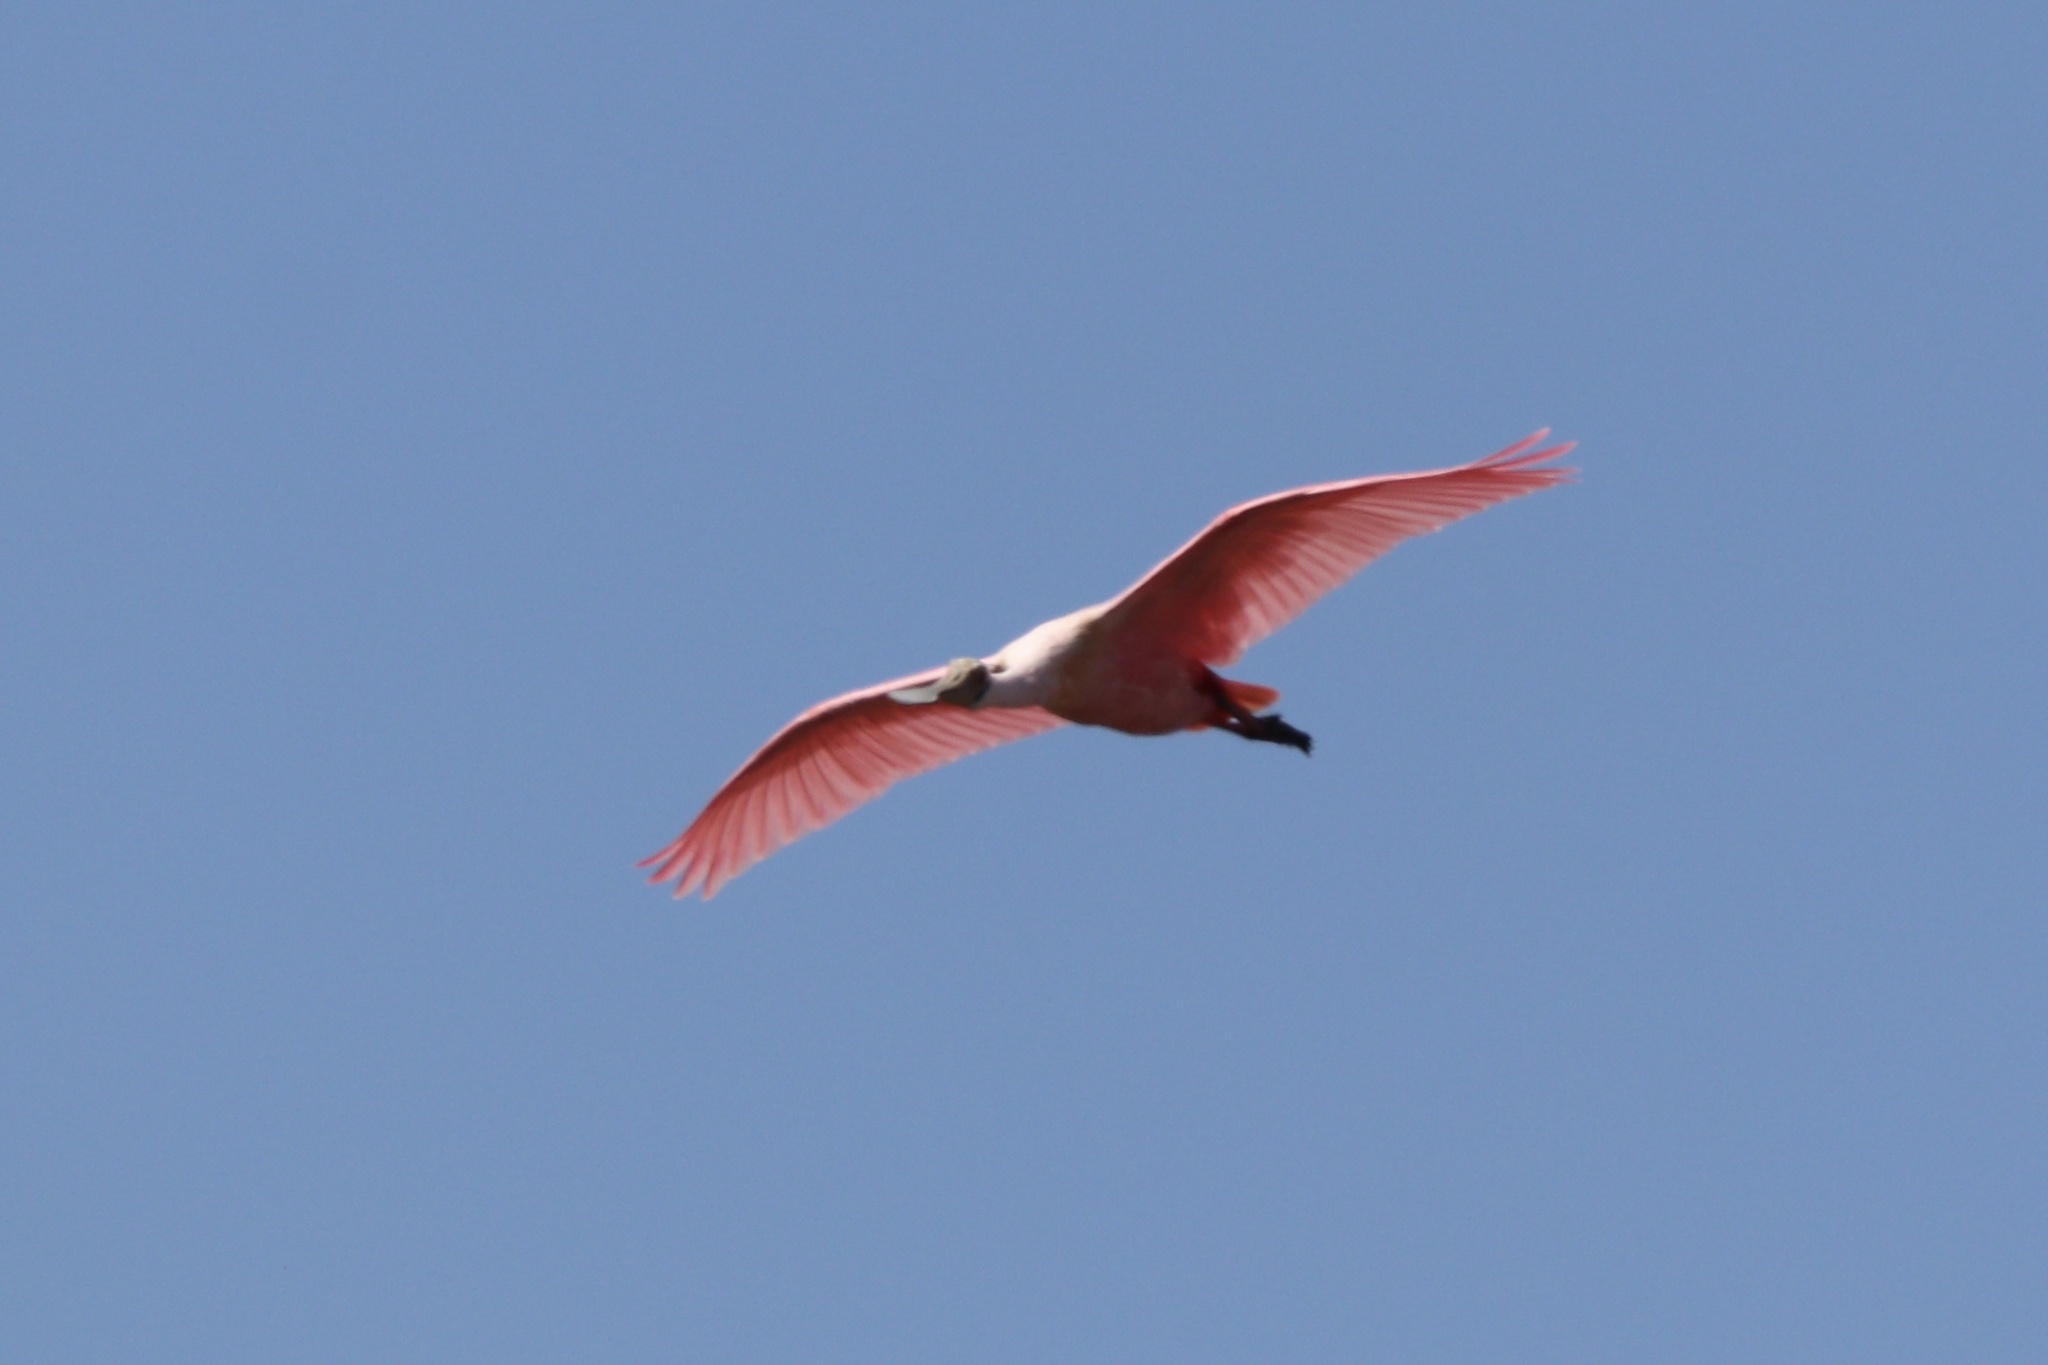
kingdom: Animalia
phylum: Chordata
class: Aves
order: Pelecaniformes
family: Threskiornithidae
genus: Platalea
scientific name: Platalea ajaja
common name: Roseate spoonbill
